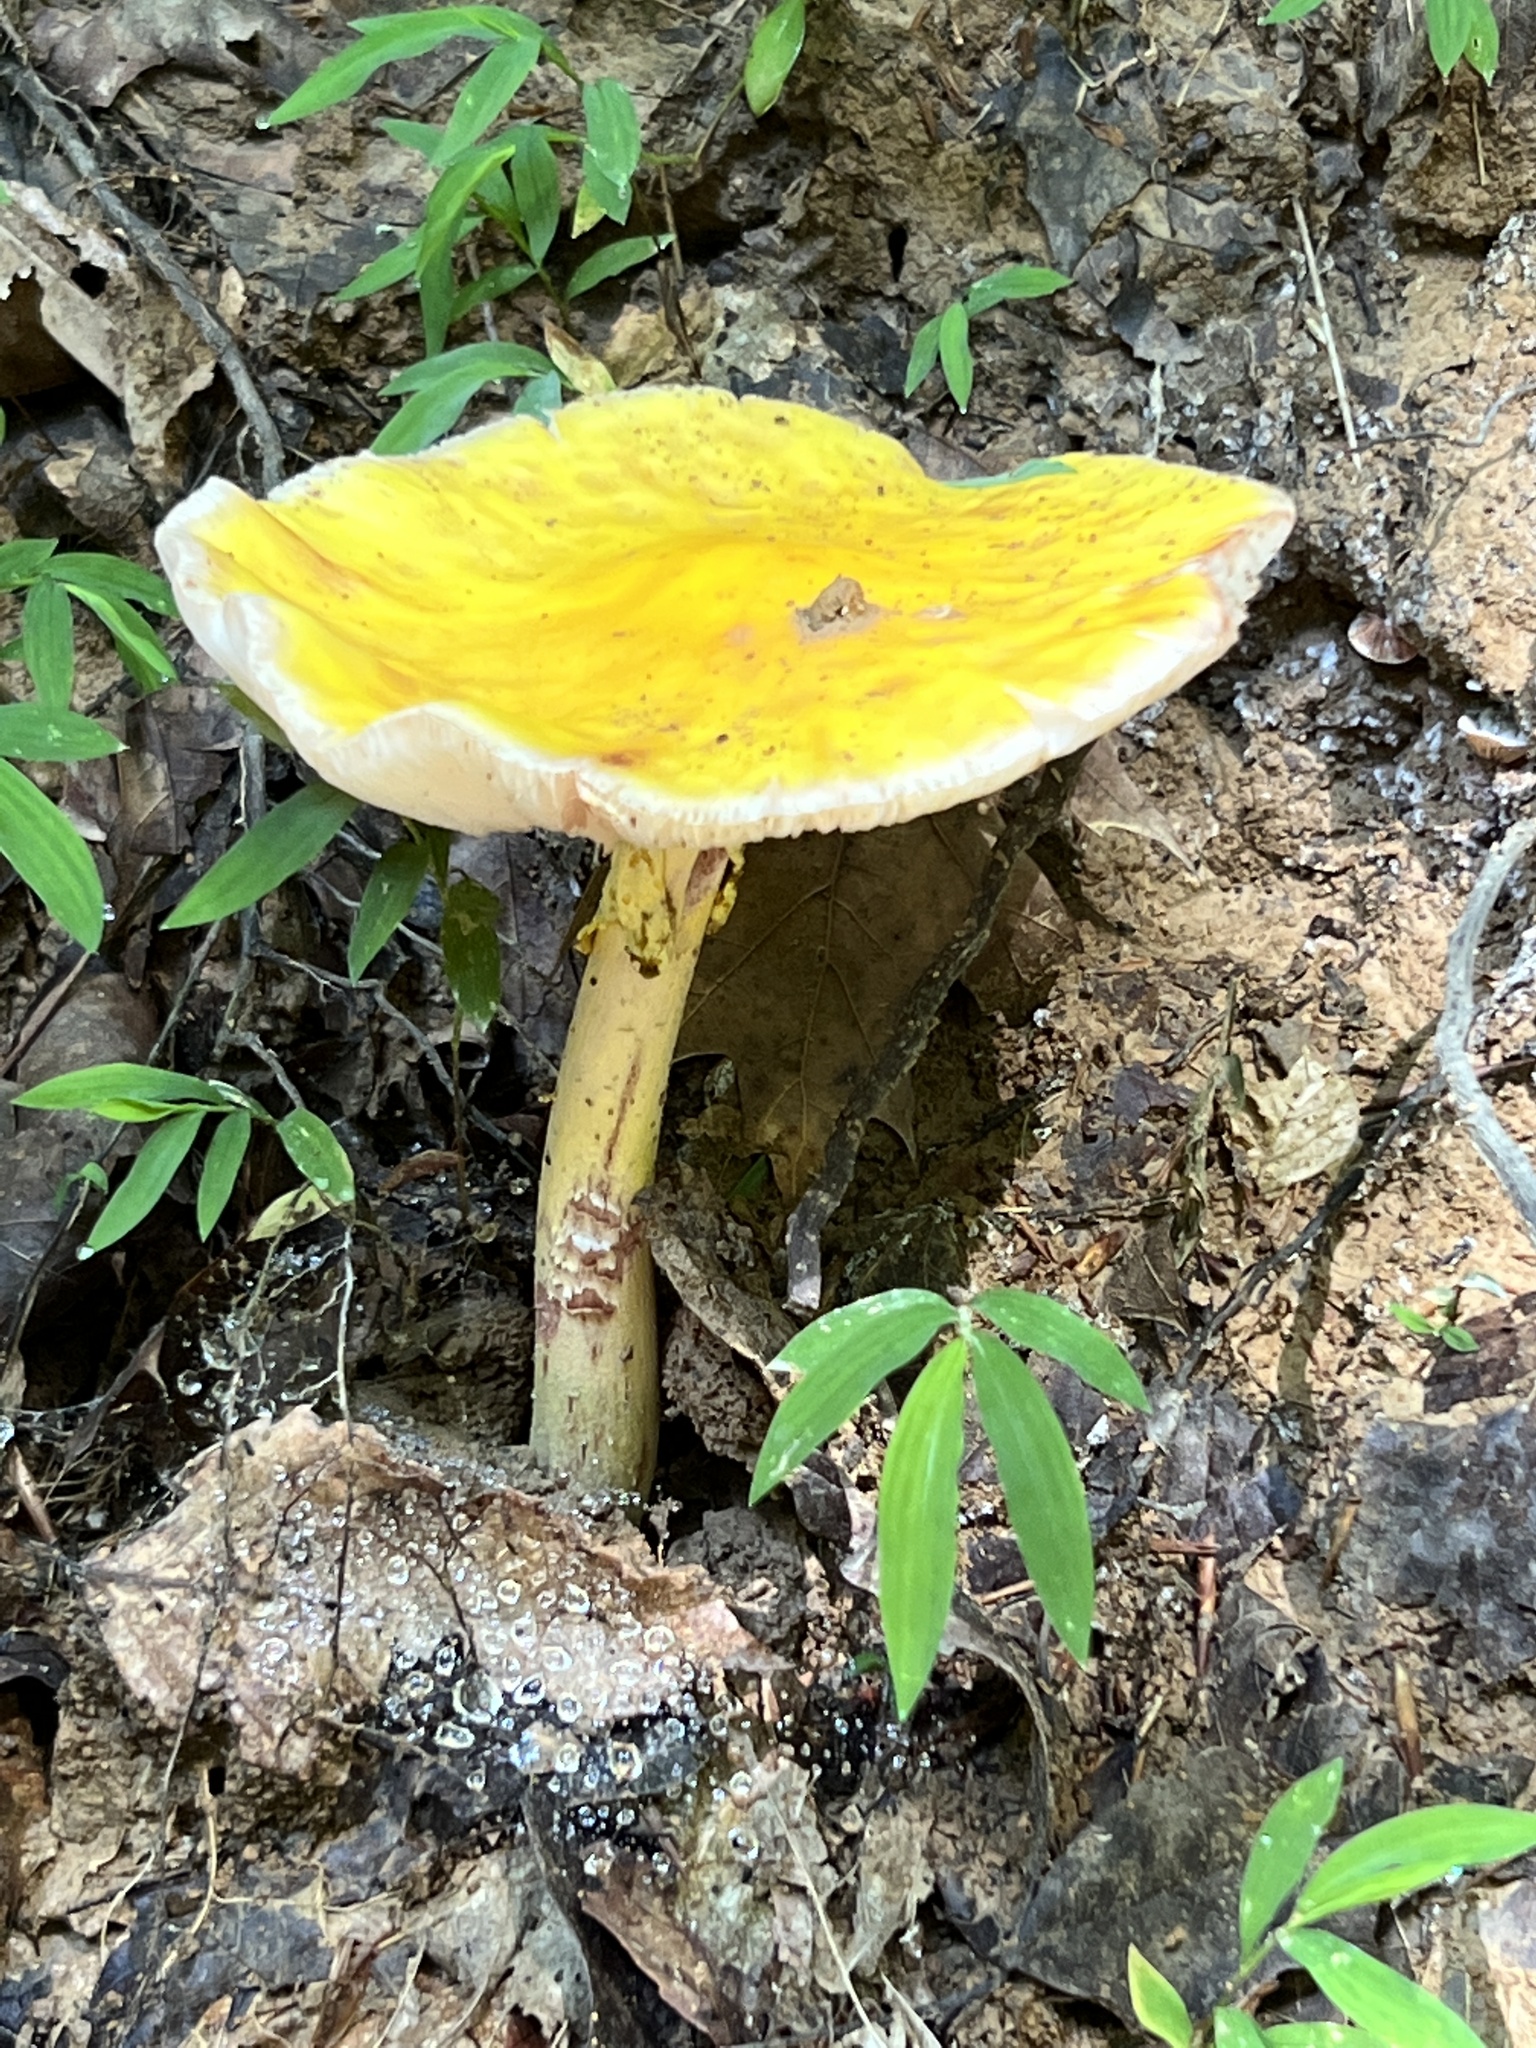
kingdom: Fungi
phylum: Basidiomycota
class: Agaricomycetes
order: Agaricales
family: Amanitaceae
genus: Amanita
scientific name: Amanita flavorubens
